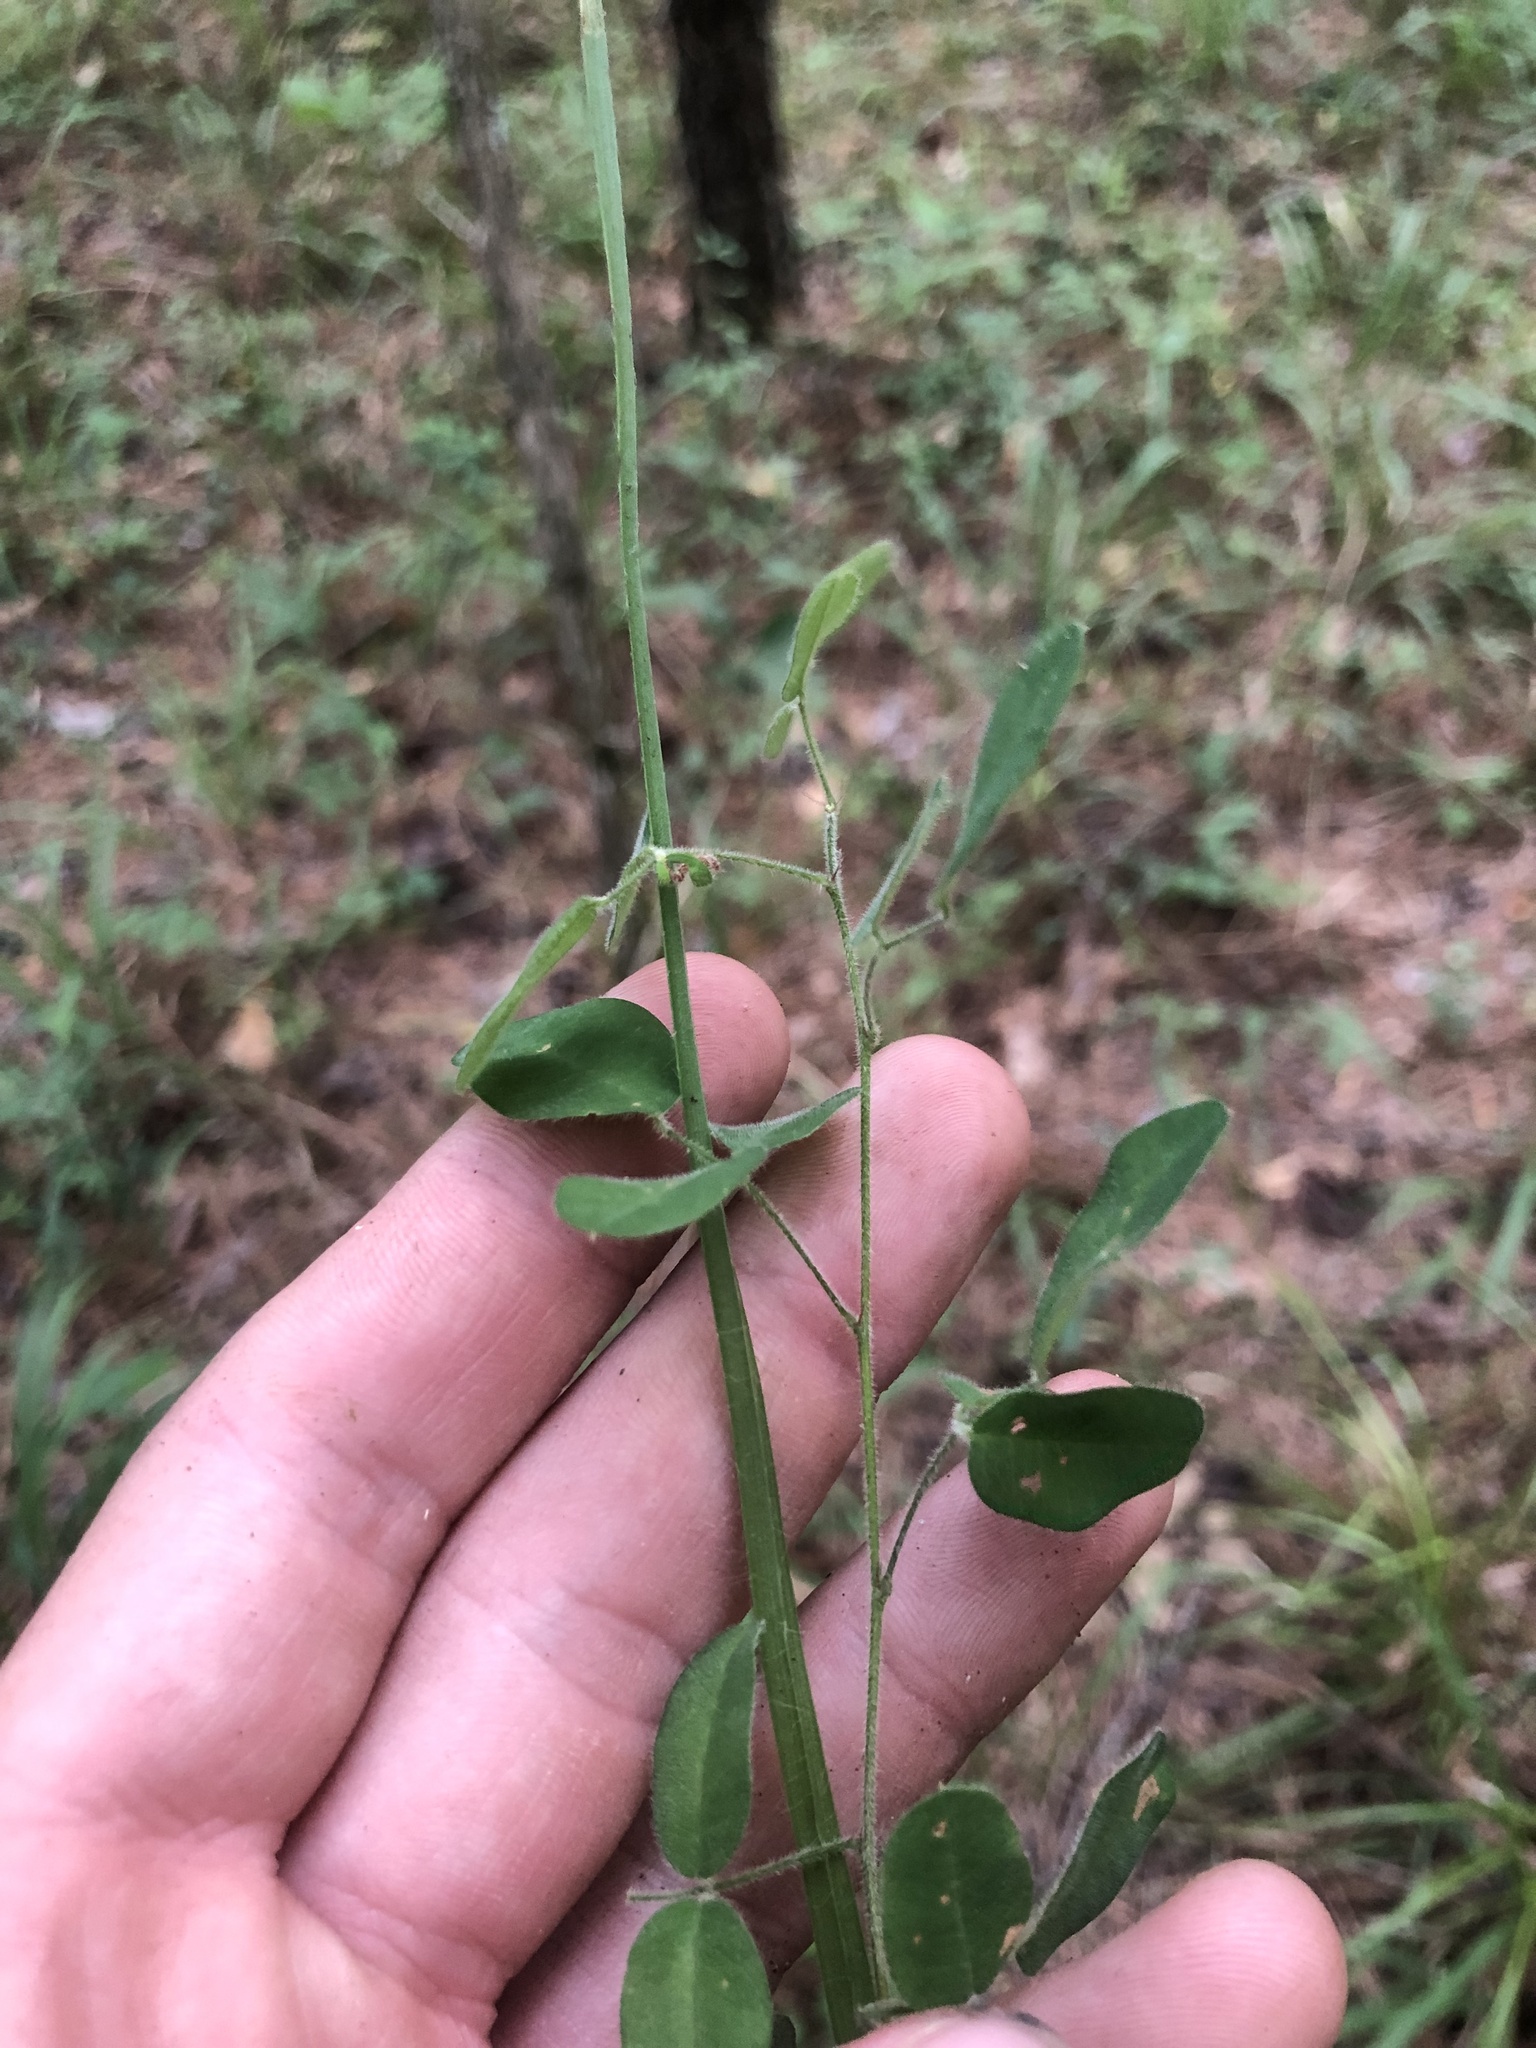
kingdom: Plantae
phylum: Tracheophyta
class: Magnoliopsida
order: Fabales
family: Fabaceae
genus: Lespedeza
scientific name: Lespedeza procumbens
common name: Downy trailing bush-clover
